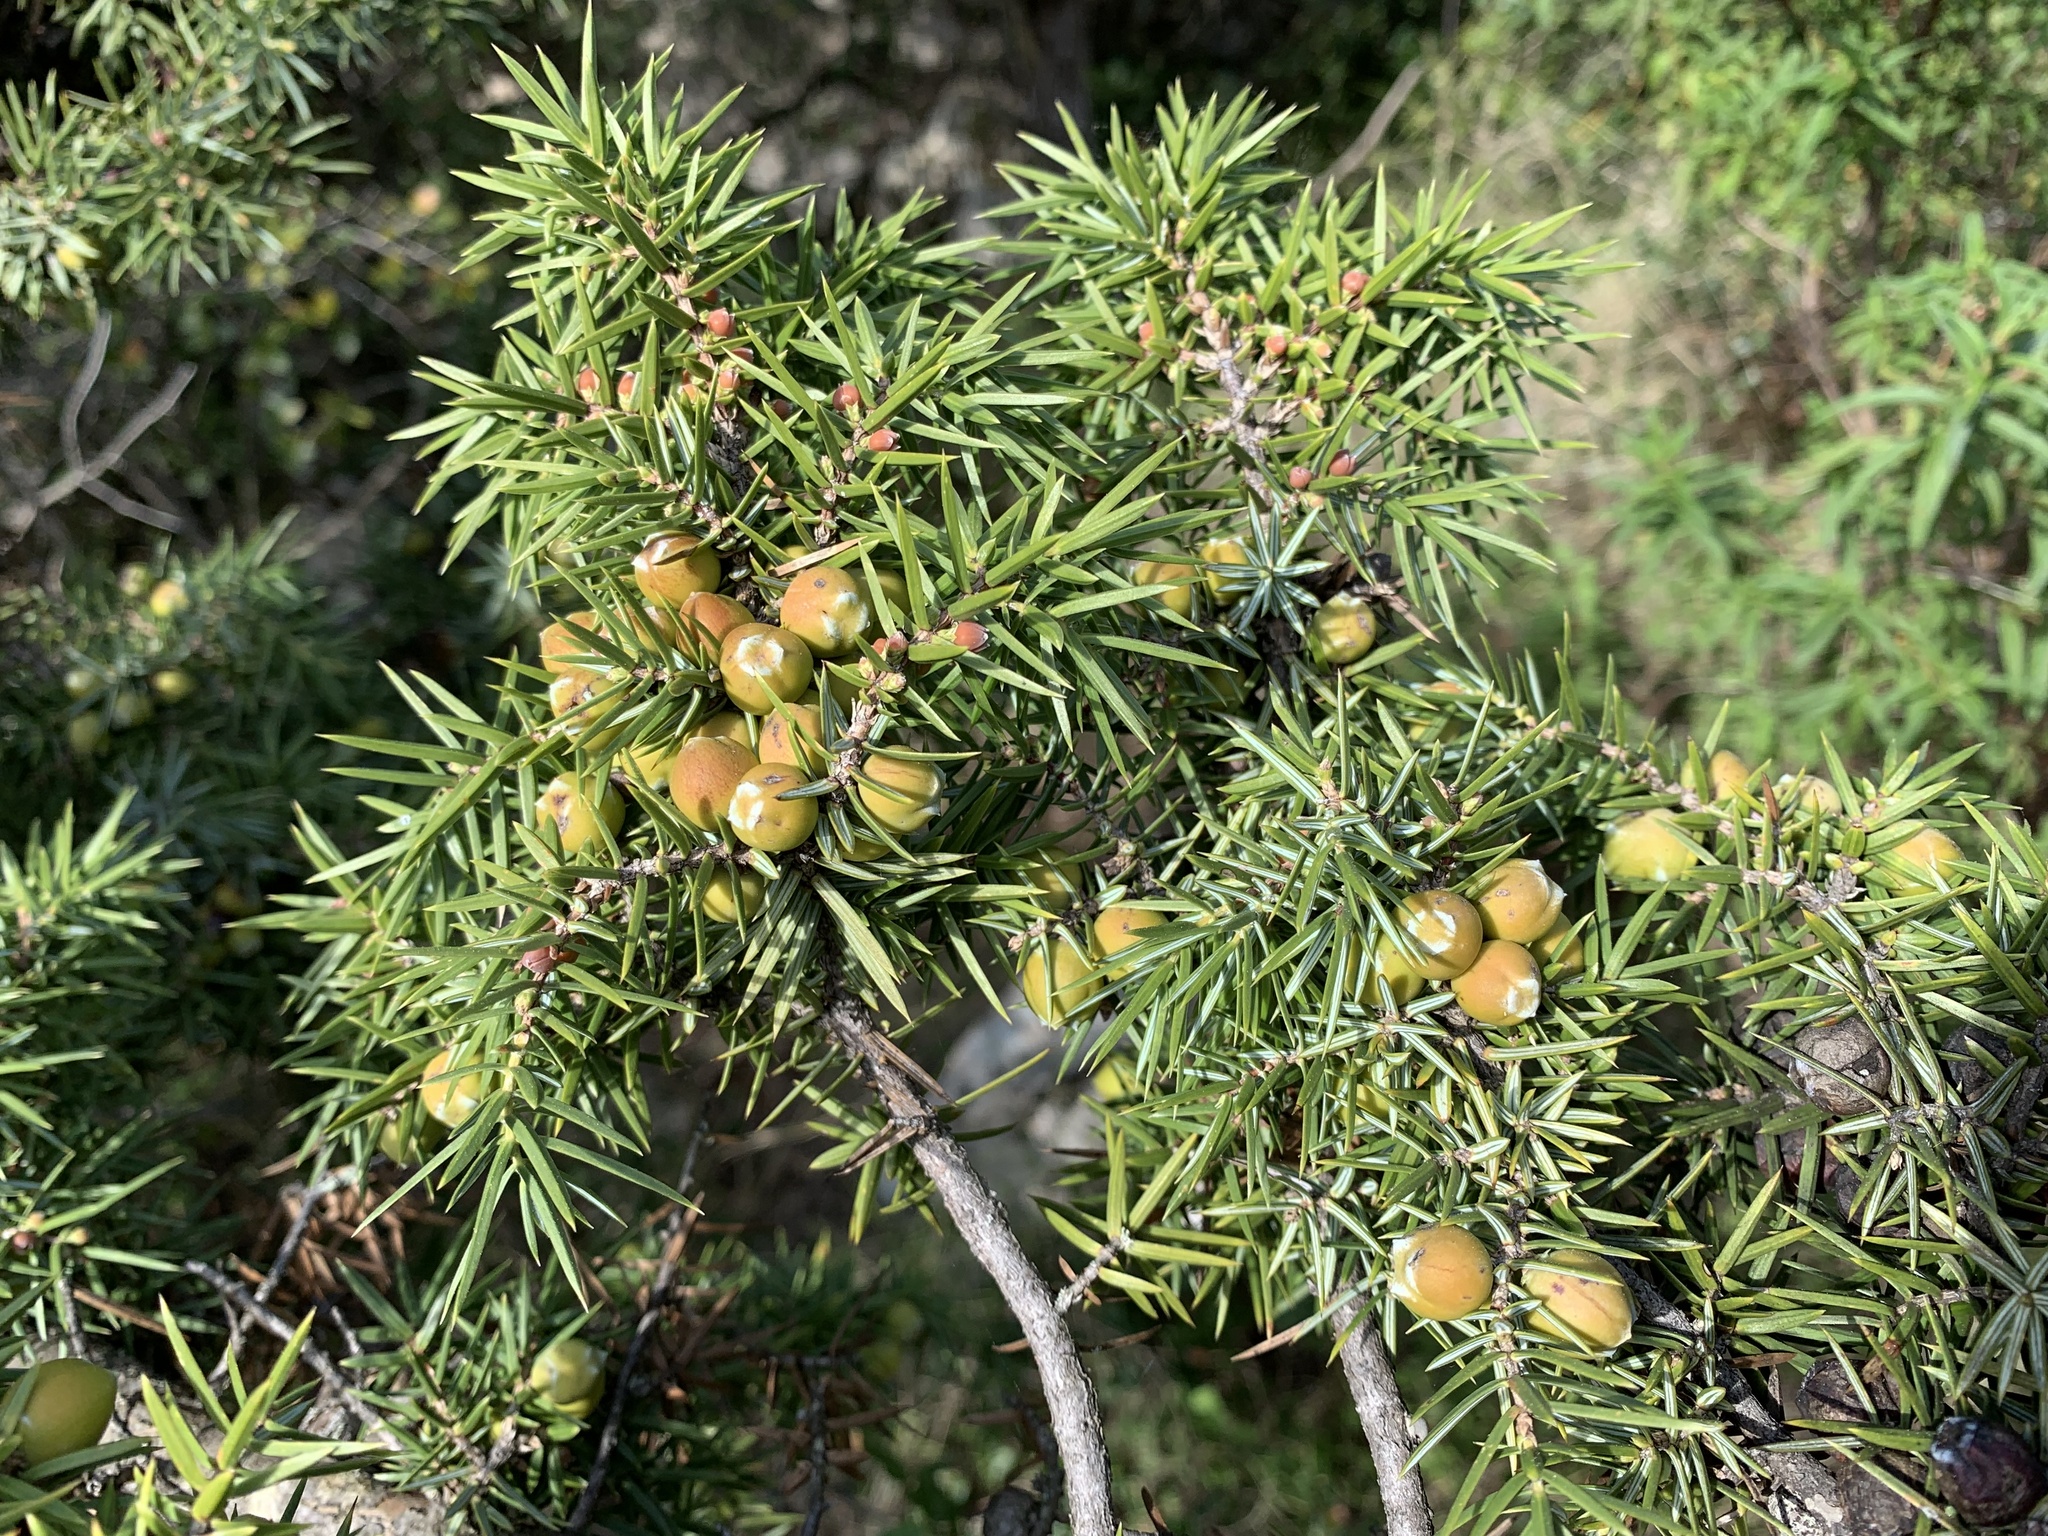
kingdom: Plantae
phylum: Tracheophyta
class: Pinopsida
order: Pinales
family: Cupressaceae
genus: Juniperus
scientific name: Juniperus oxycedrus
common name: Prickly juniper
